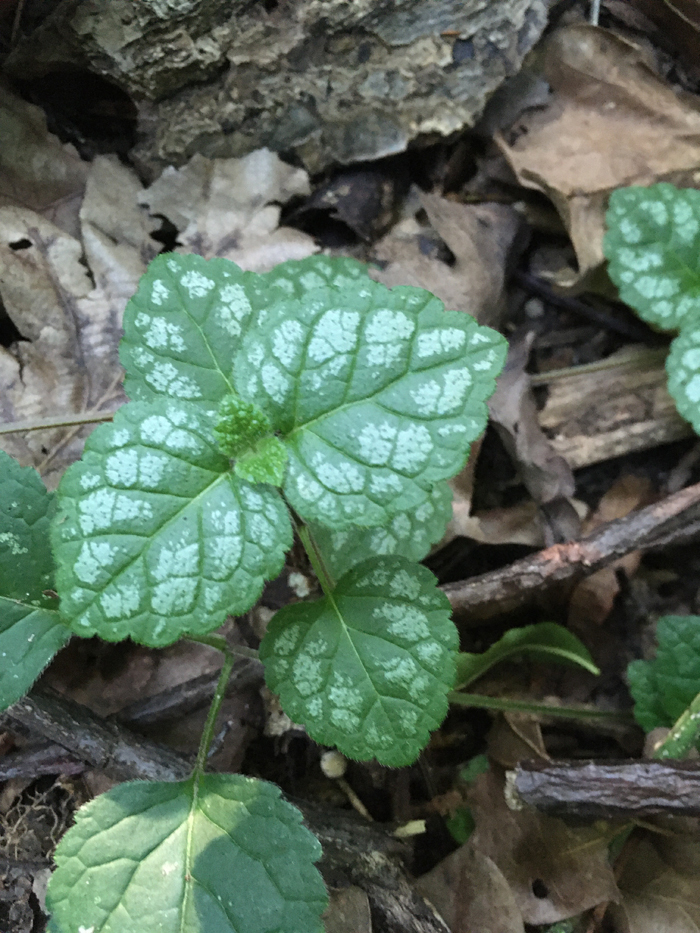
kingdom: Plantae
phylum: Tracheophyta
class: Magnoliopsida
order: Lamiales
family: Lamiaceae
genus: Lamium
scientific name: Lamium galeobdolon
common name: Yellow archangel
